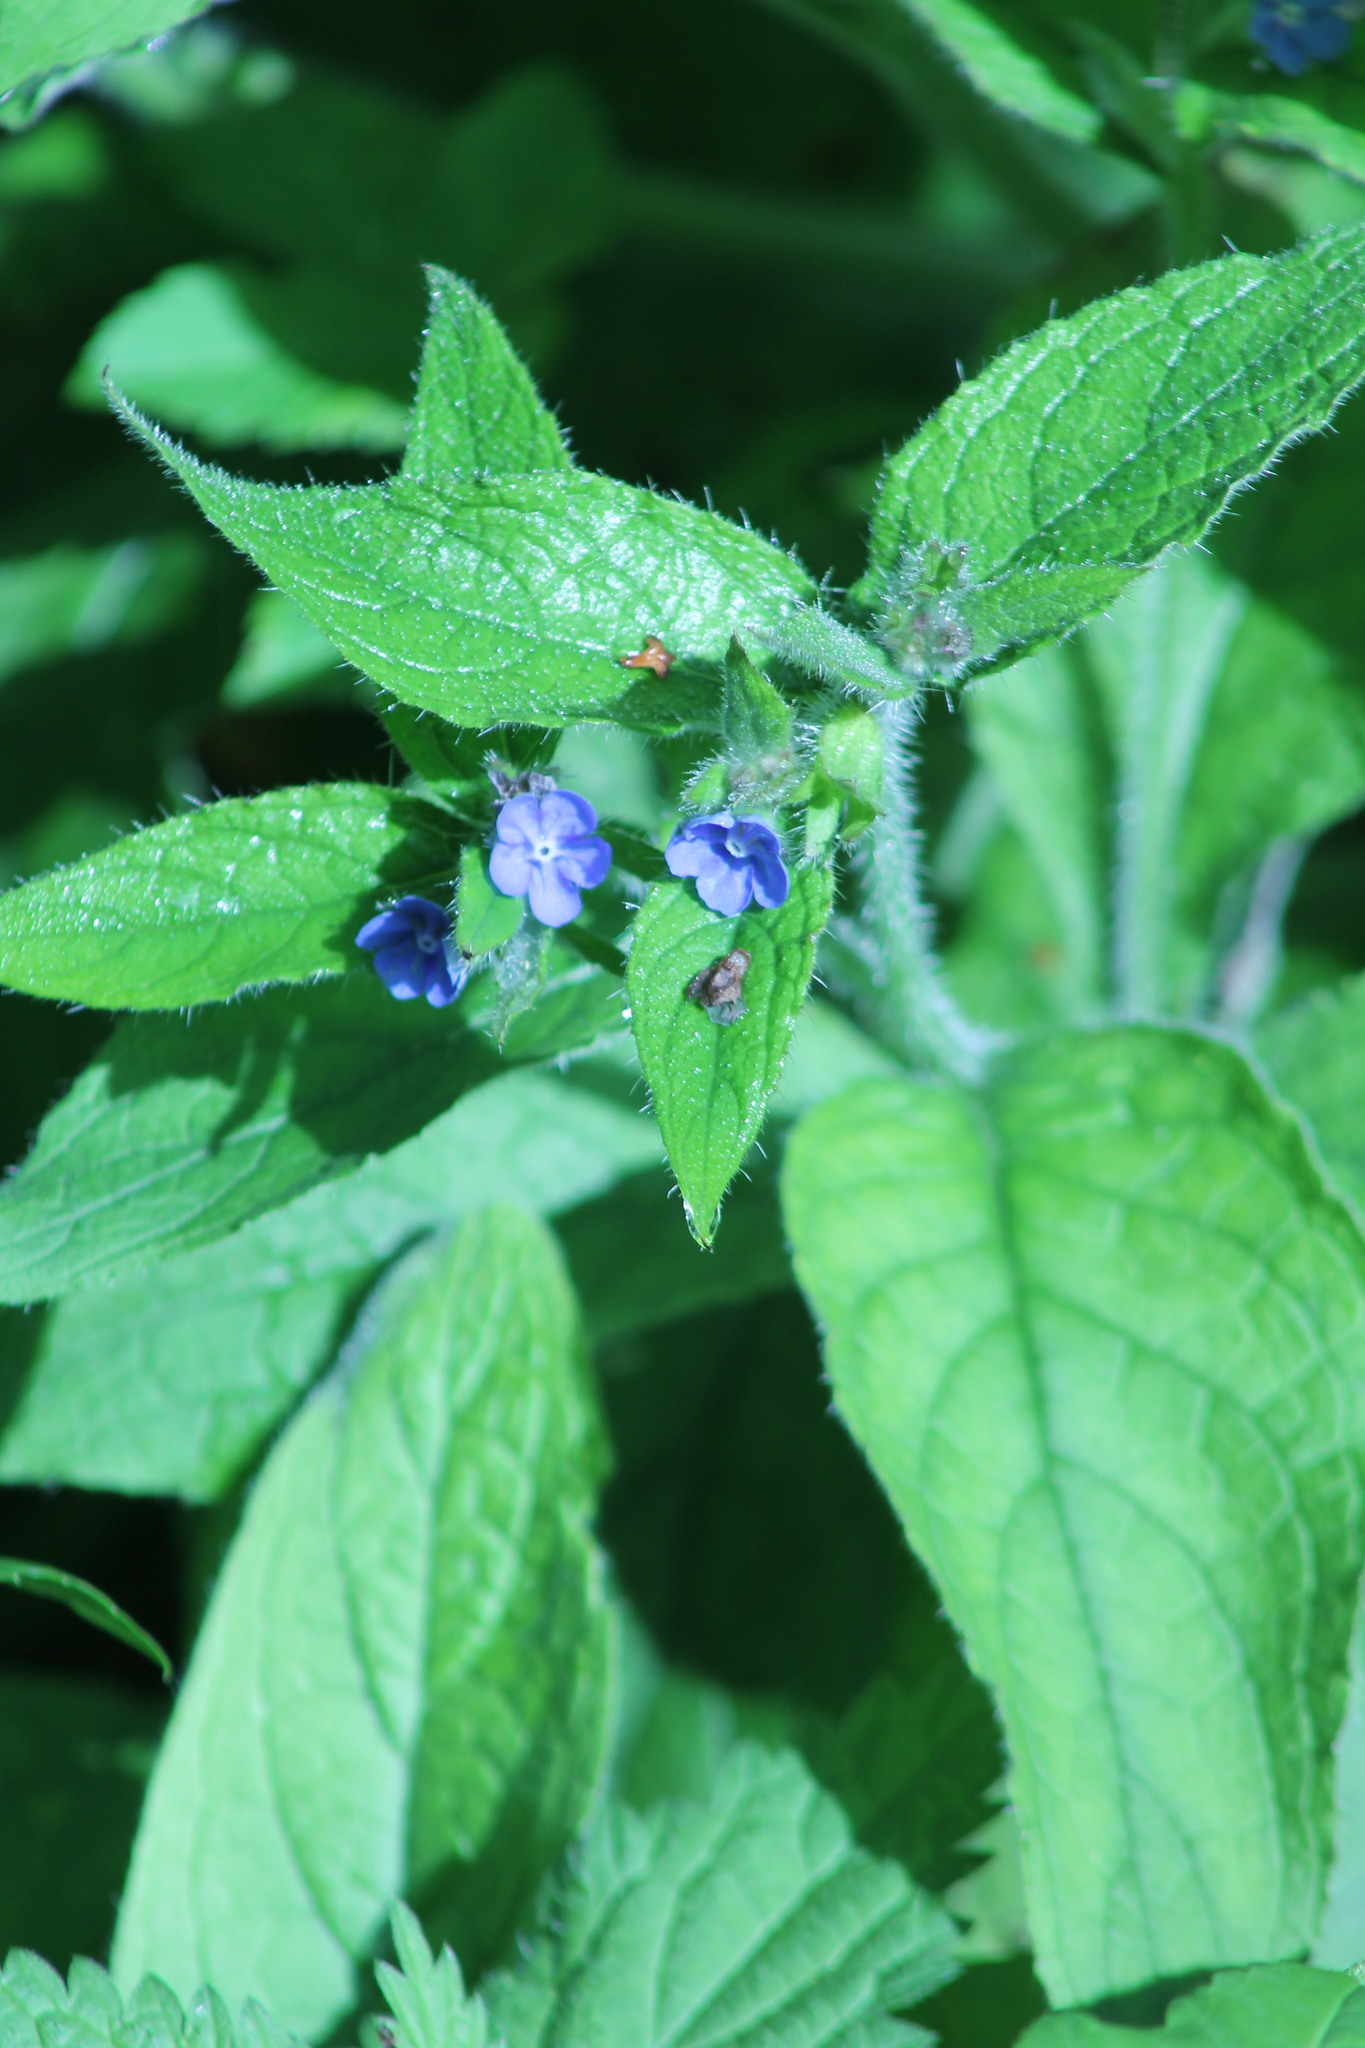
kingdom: Plantae
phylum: Tracheophyta
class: Magnoliopsida
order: Boraginales
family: Boraginaceae
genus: Pentaglottis
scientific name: Pentaglottis sempervirens
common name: Green alkanet
